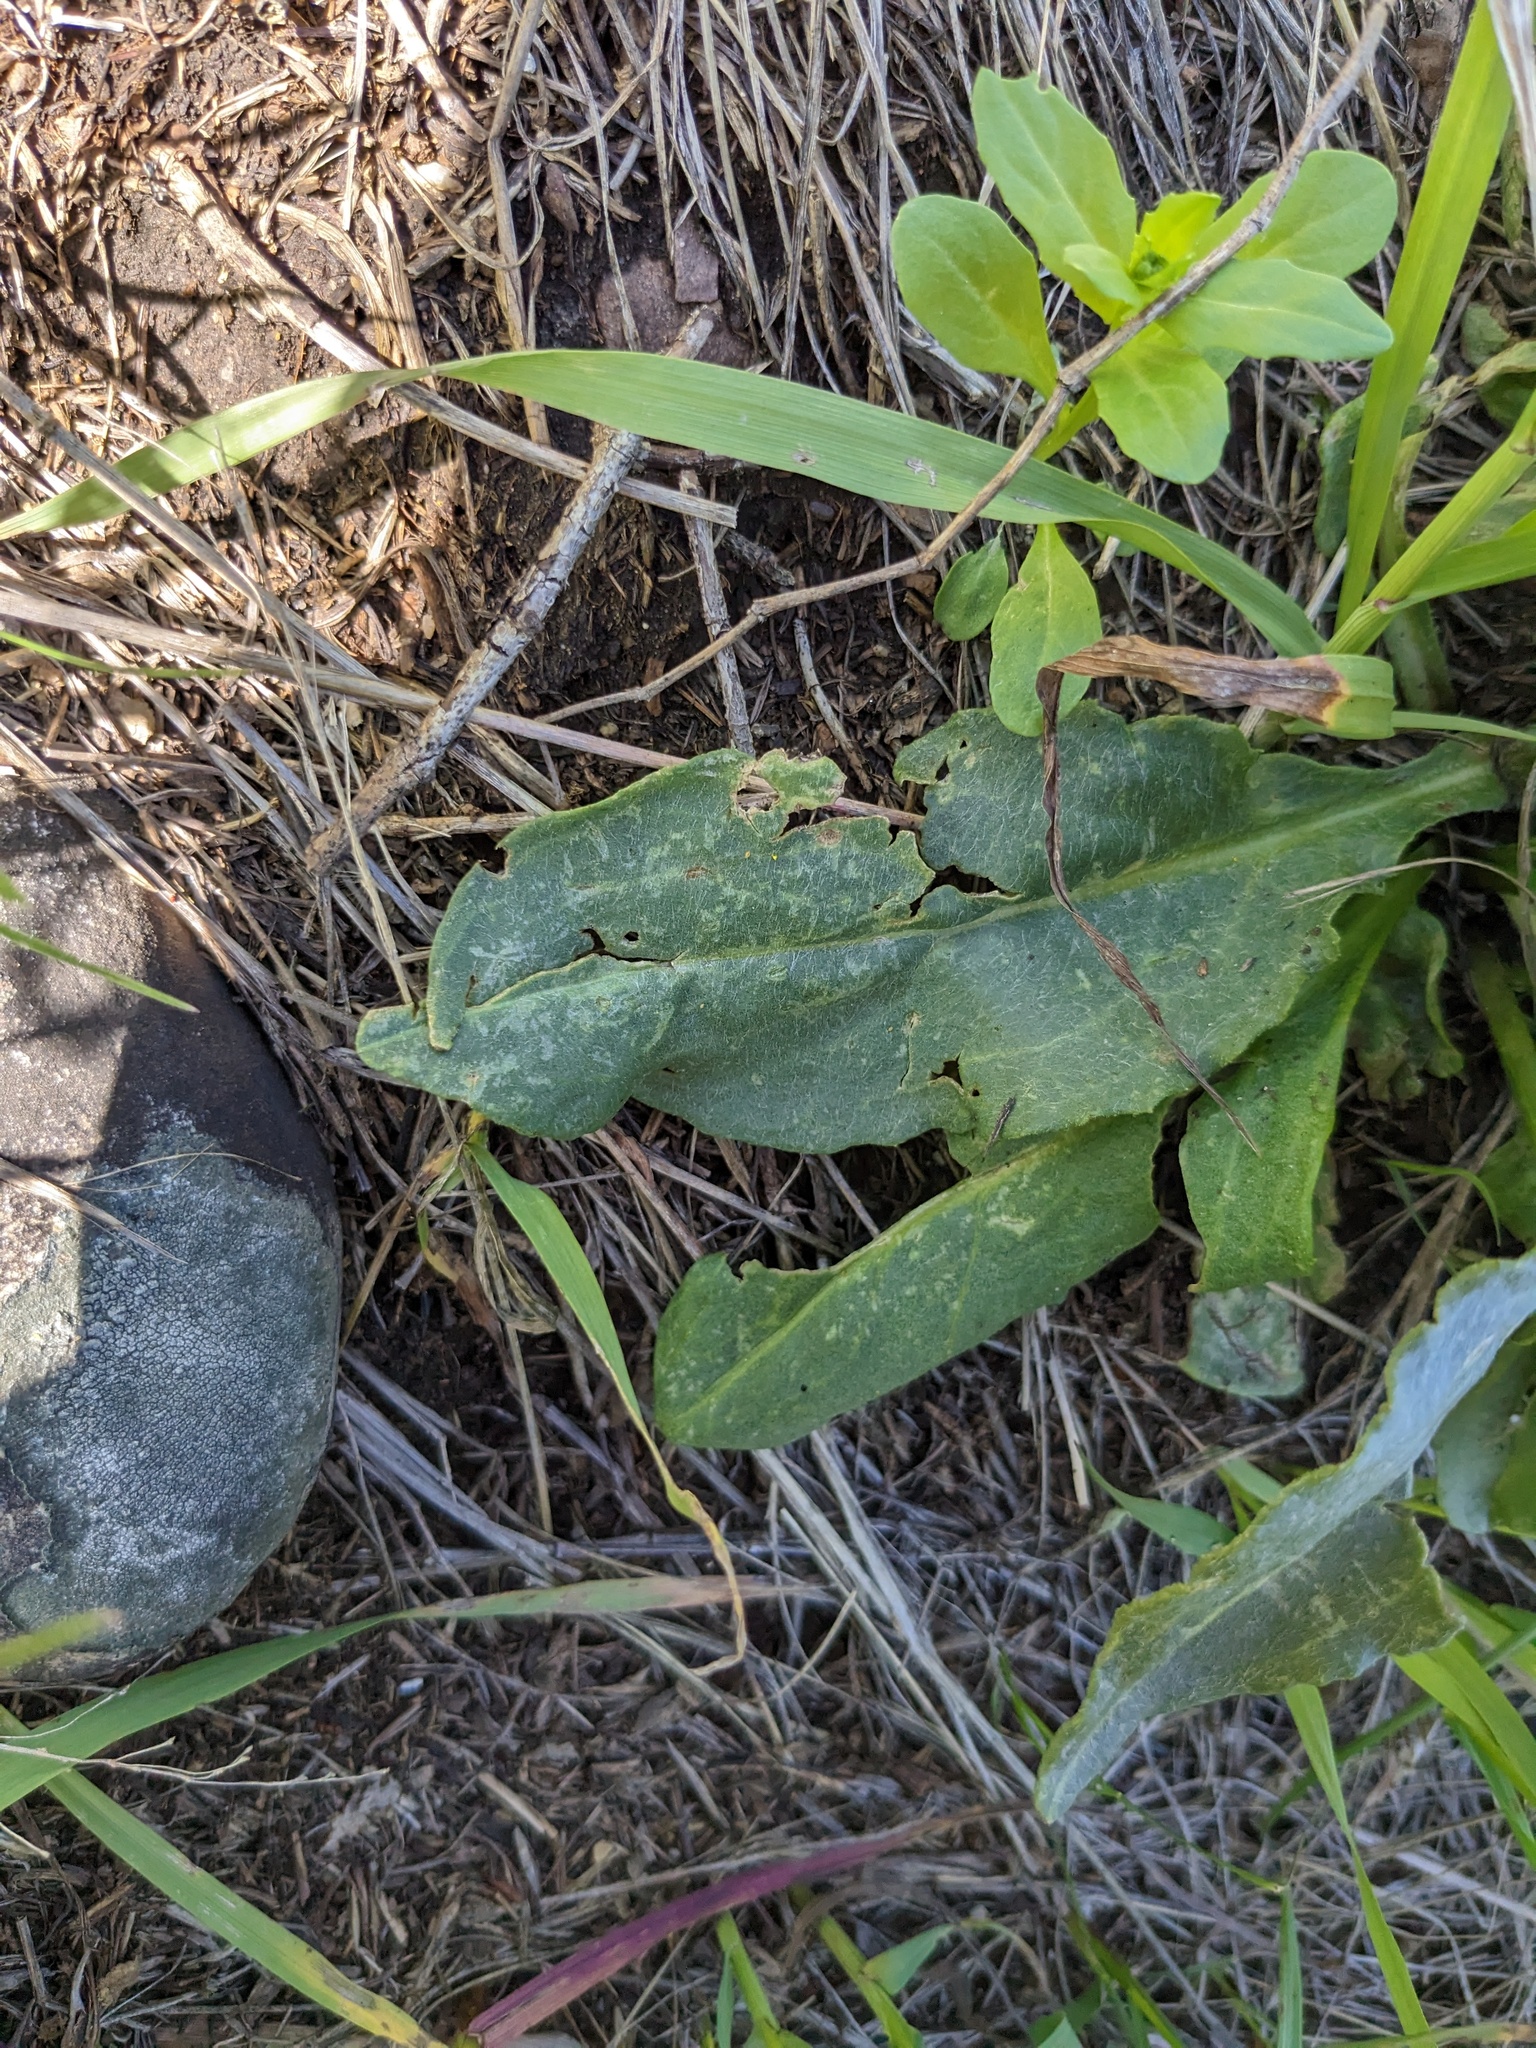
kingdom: Plantae
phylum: Tracheophyta
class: Magnoliopsida
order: Asterales
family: Asteraceae
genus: Senecio
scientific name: Senecio integerrimus
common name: Gaugeplant
